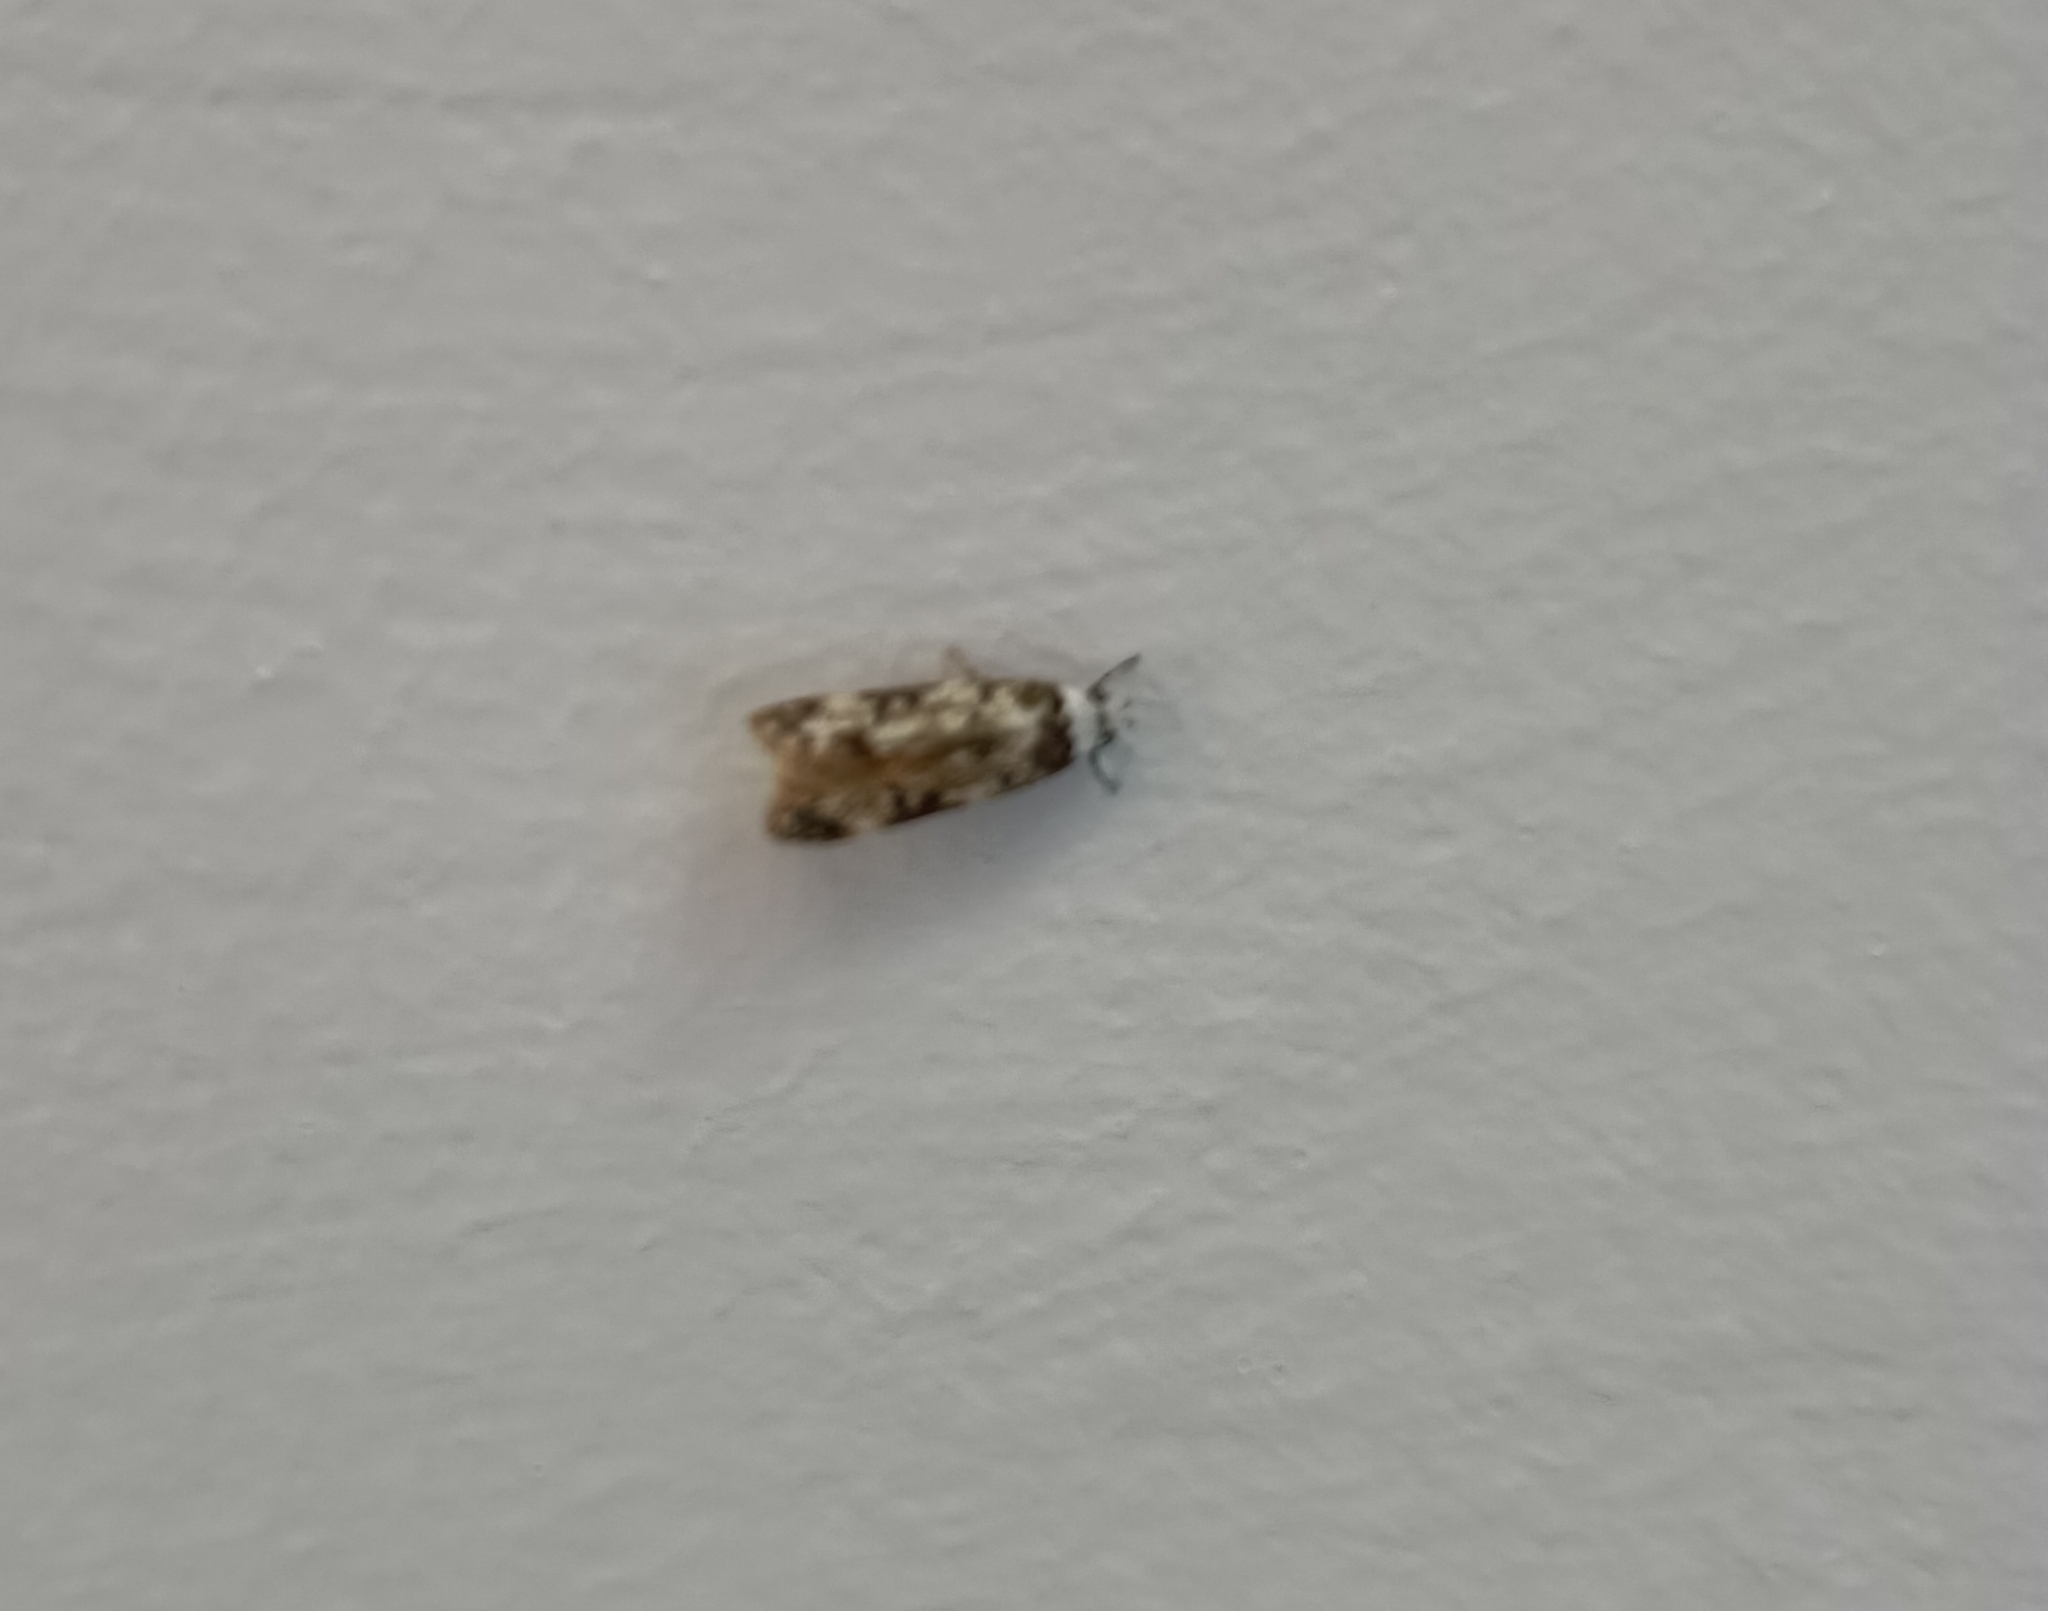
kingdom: Animalia
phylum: Arthropoda
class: Insecta
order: Lepidoptera
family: Oecophoridae
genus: Endrosis
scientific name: Endrosis sarcitrella
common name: White-shouldered house moth
